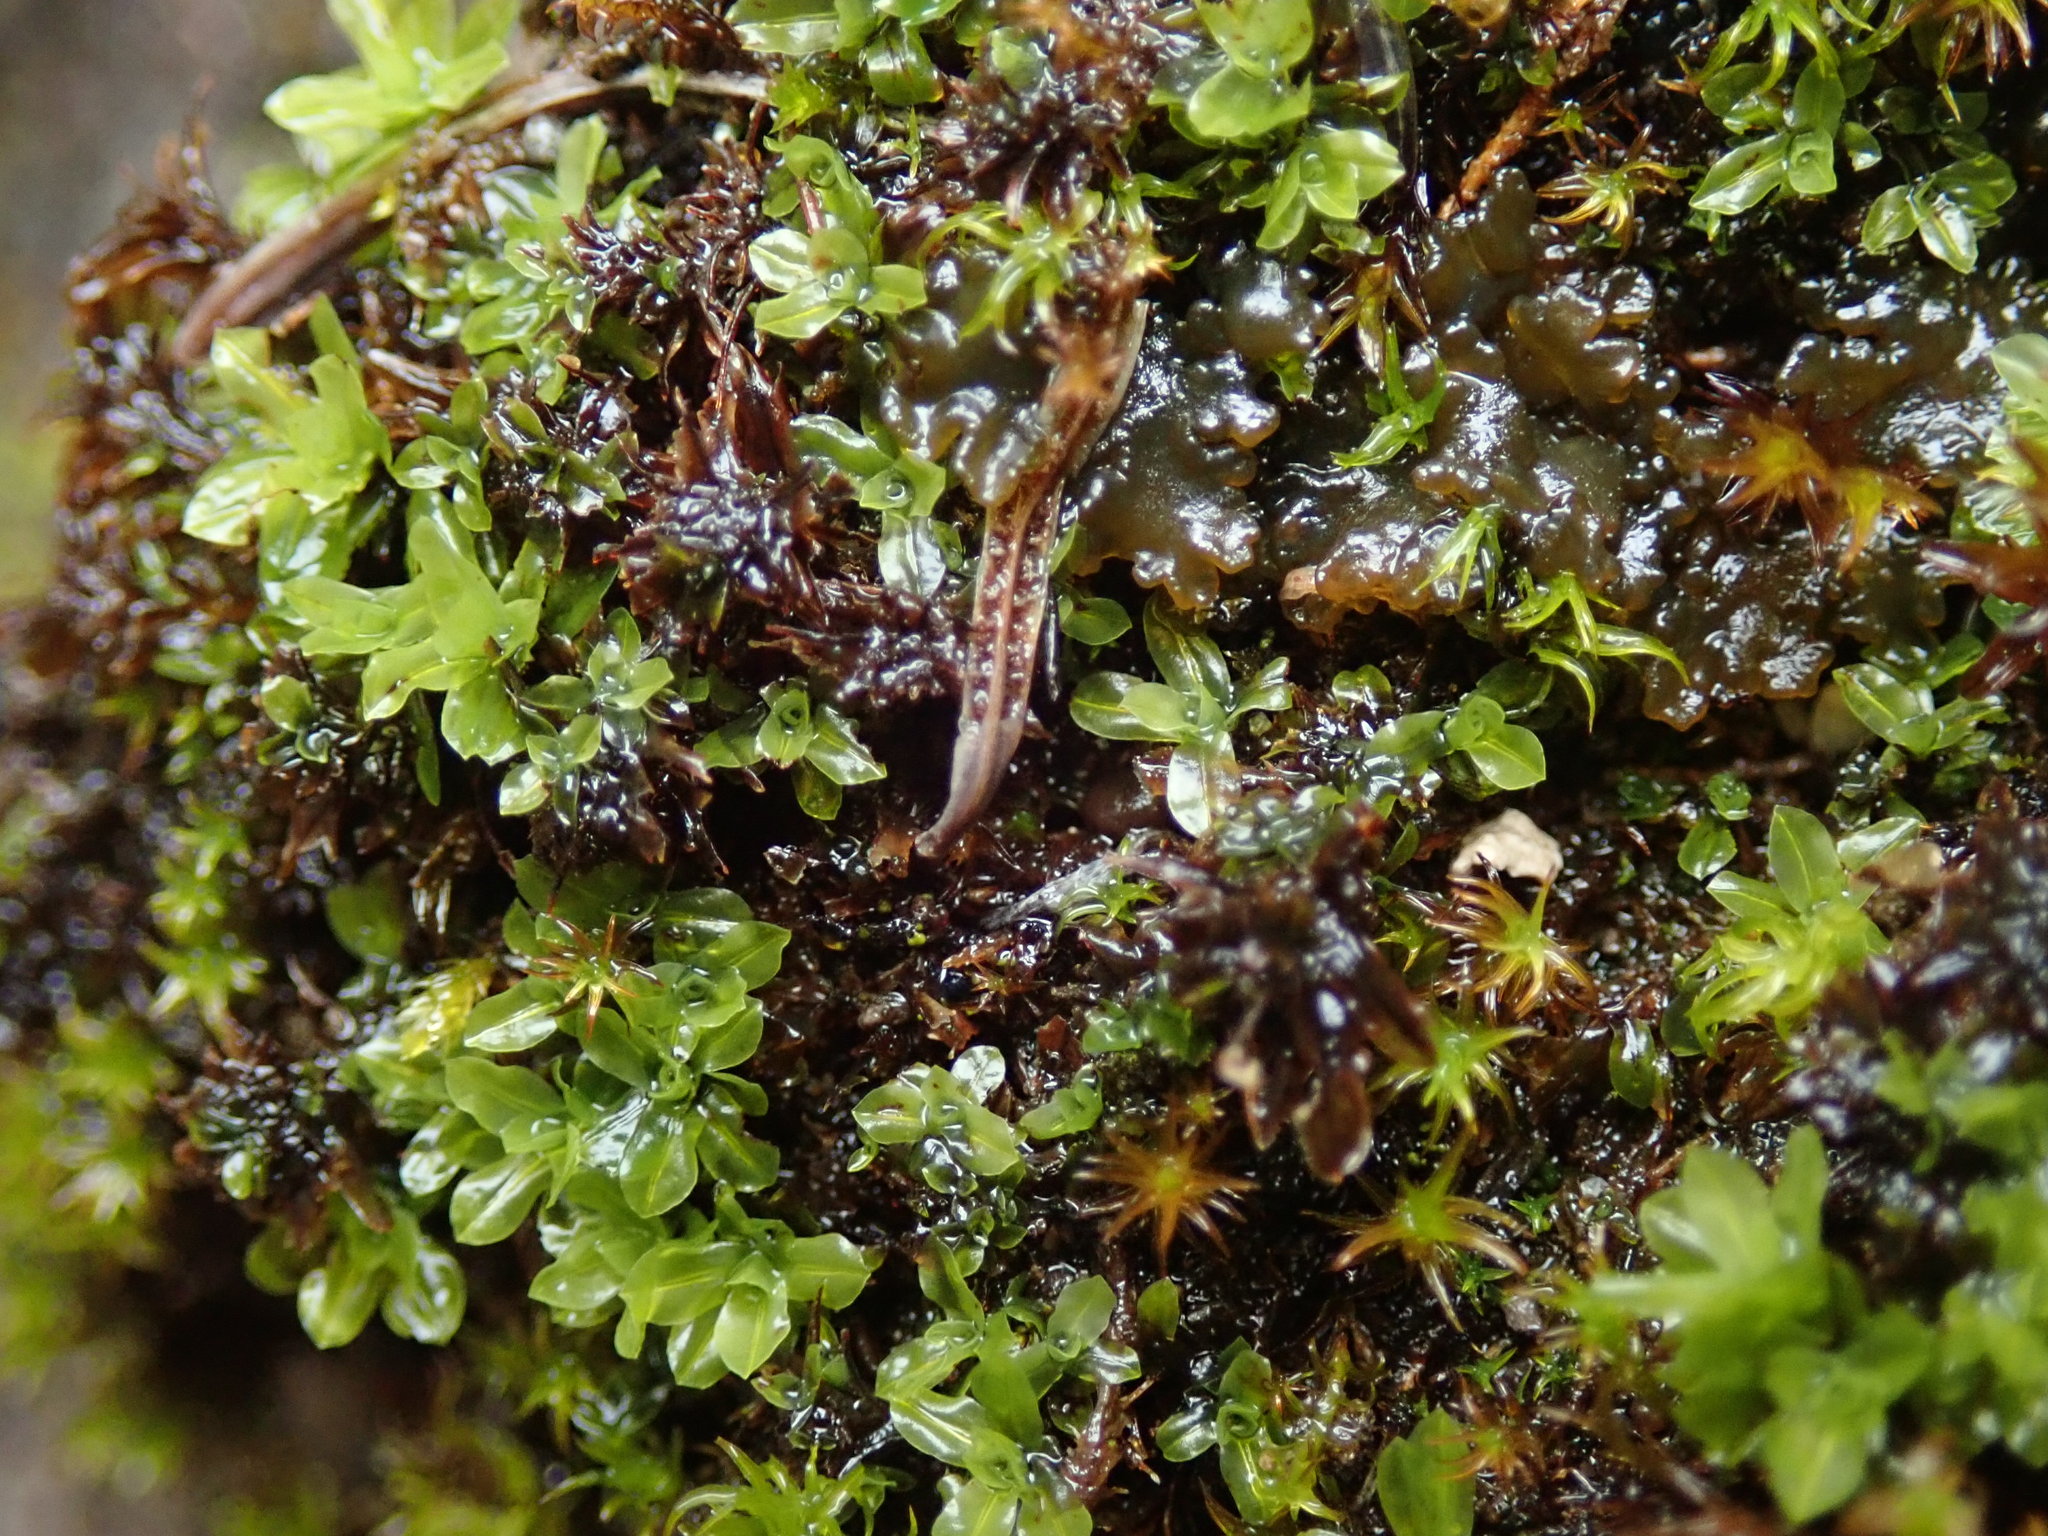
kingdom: Plantae
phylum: Bryophyta
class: Bryopsida
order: Encalyptales
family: Encalyptaceae
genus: Encalypta
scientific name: Encalypta procera
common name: Spiral extinguisher moss
